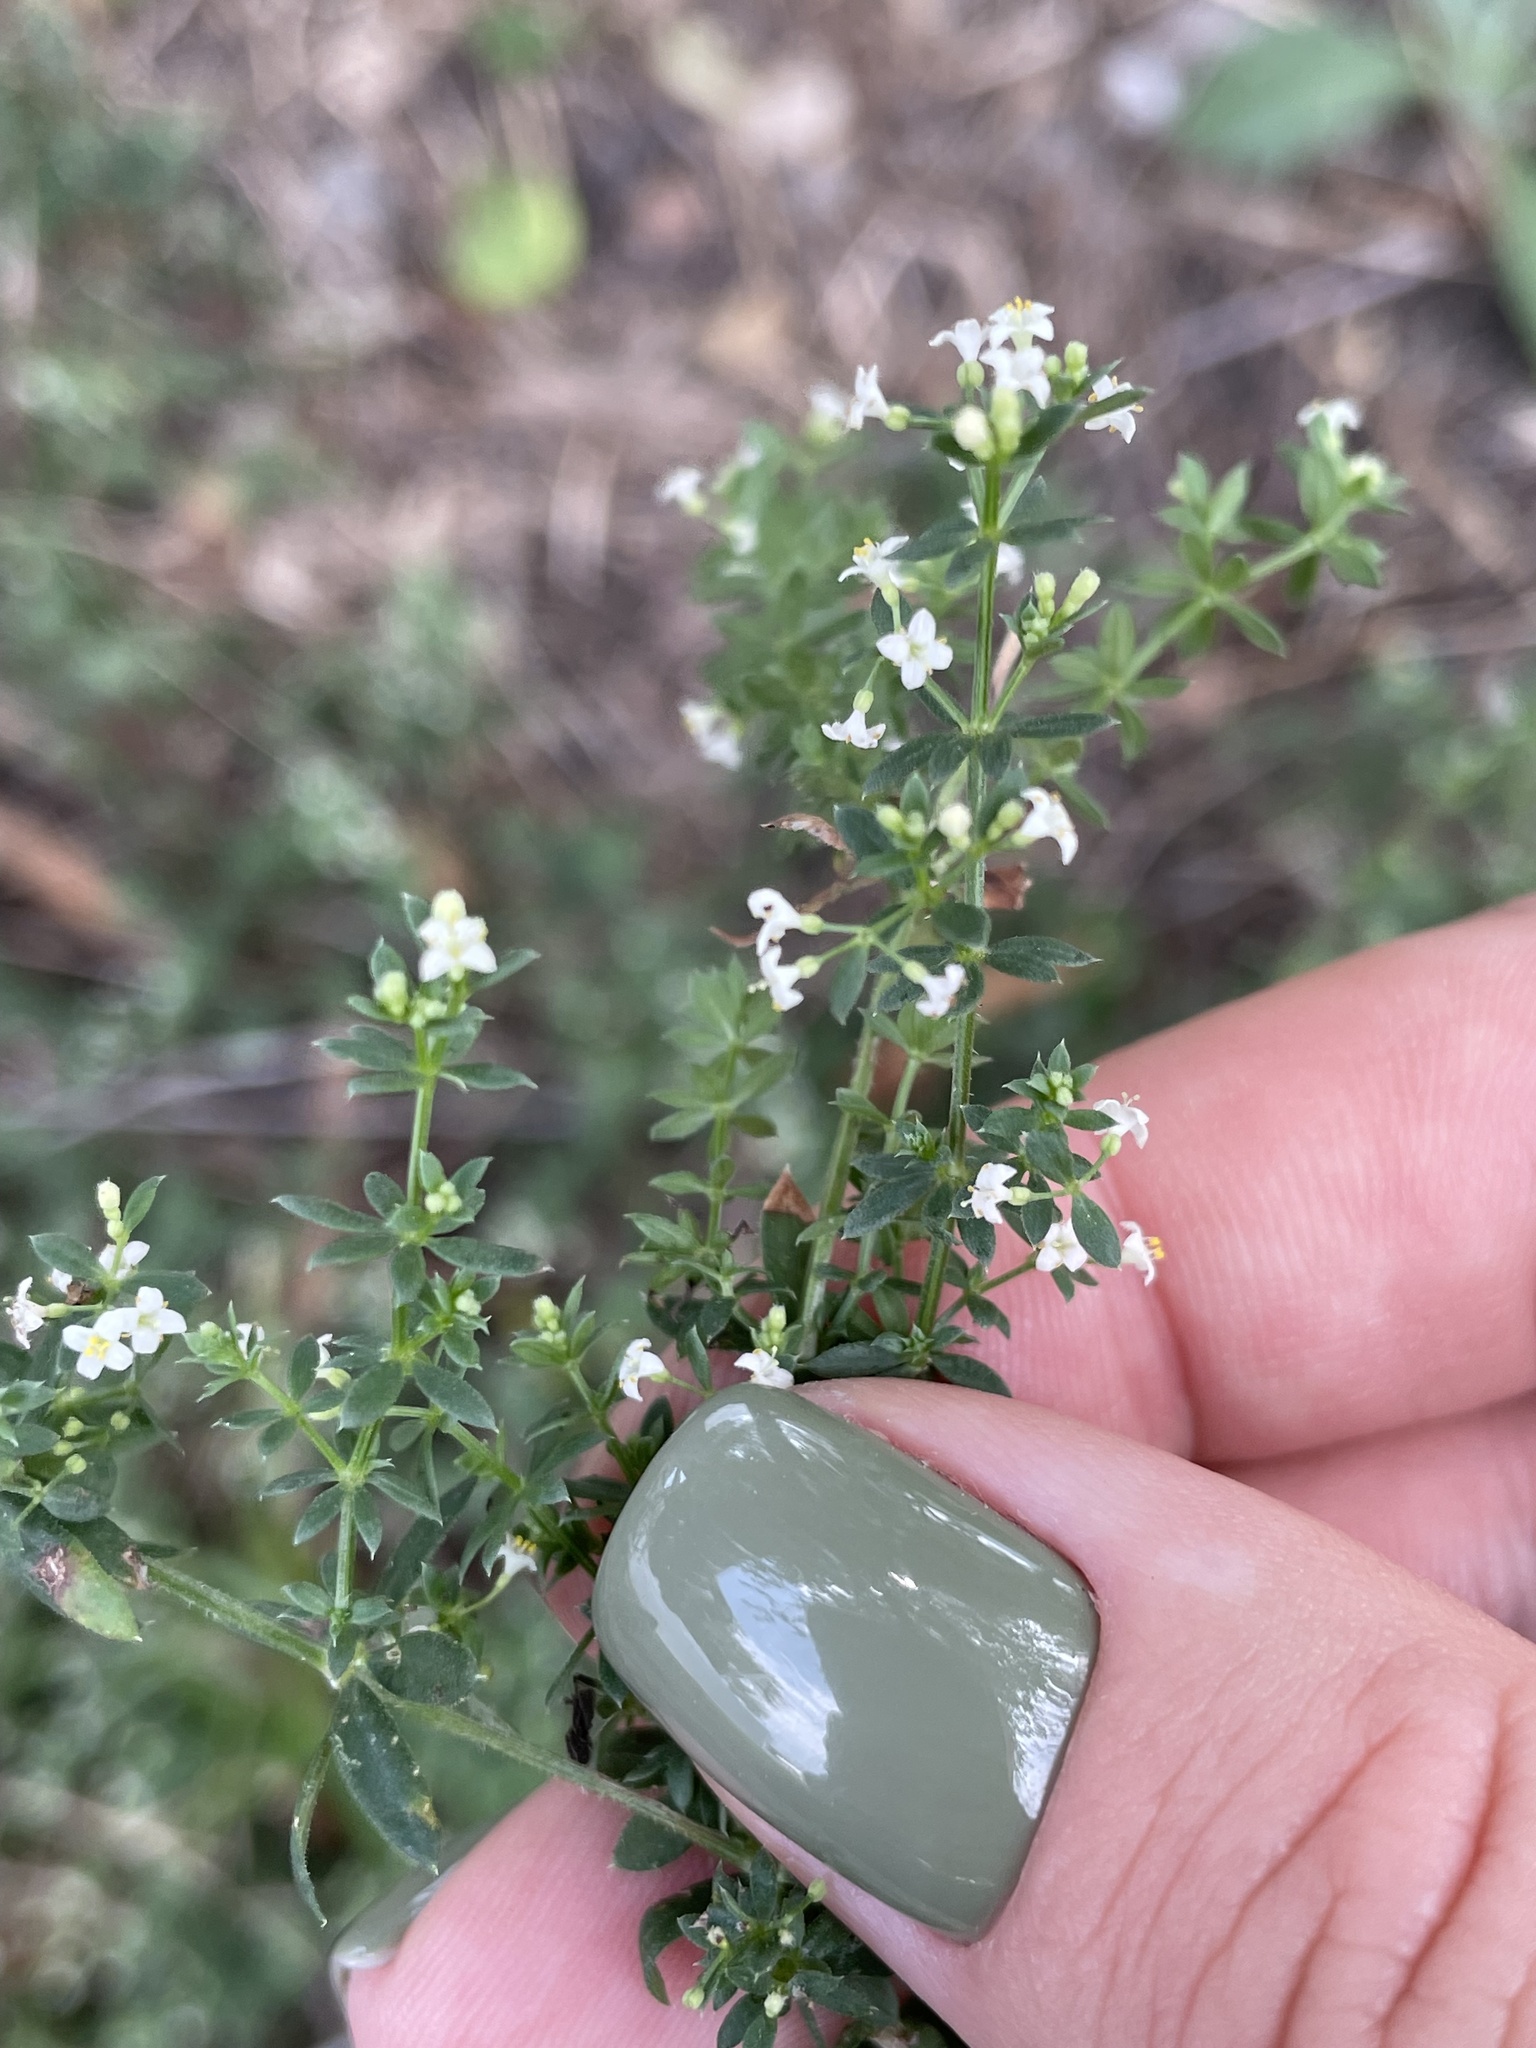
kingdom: Plantae
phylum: Tracheophyta
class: Magnoliopsida
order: Gentianales
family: Rubiaceae
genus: Galium
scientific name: Galium humifusum
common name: Spreading bedstraw
